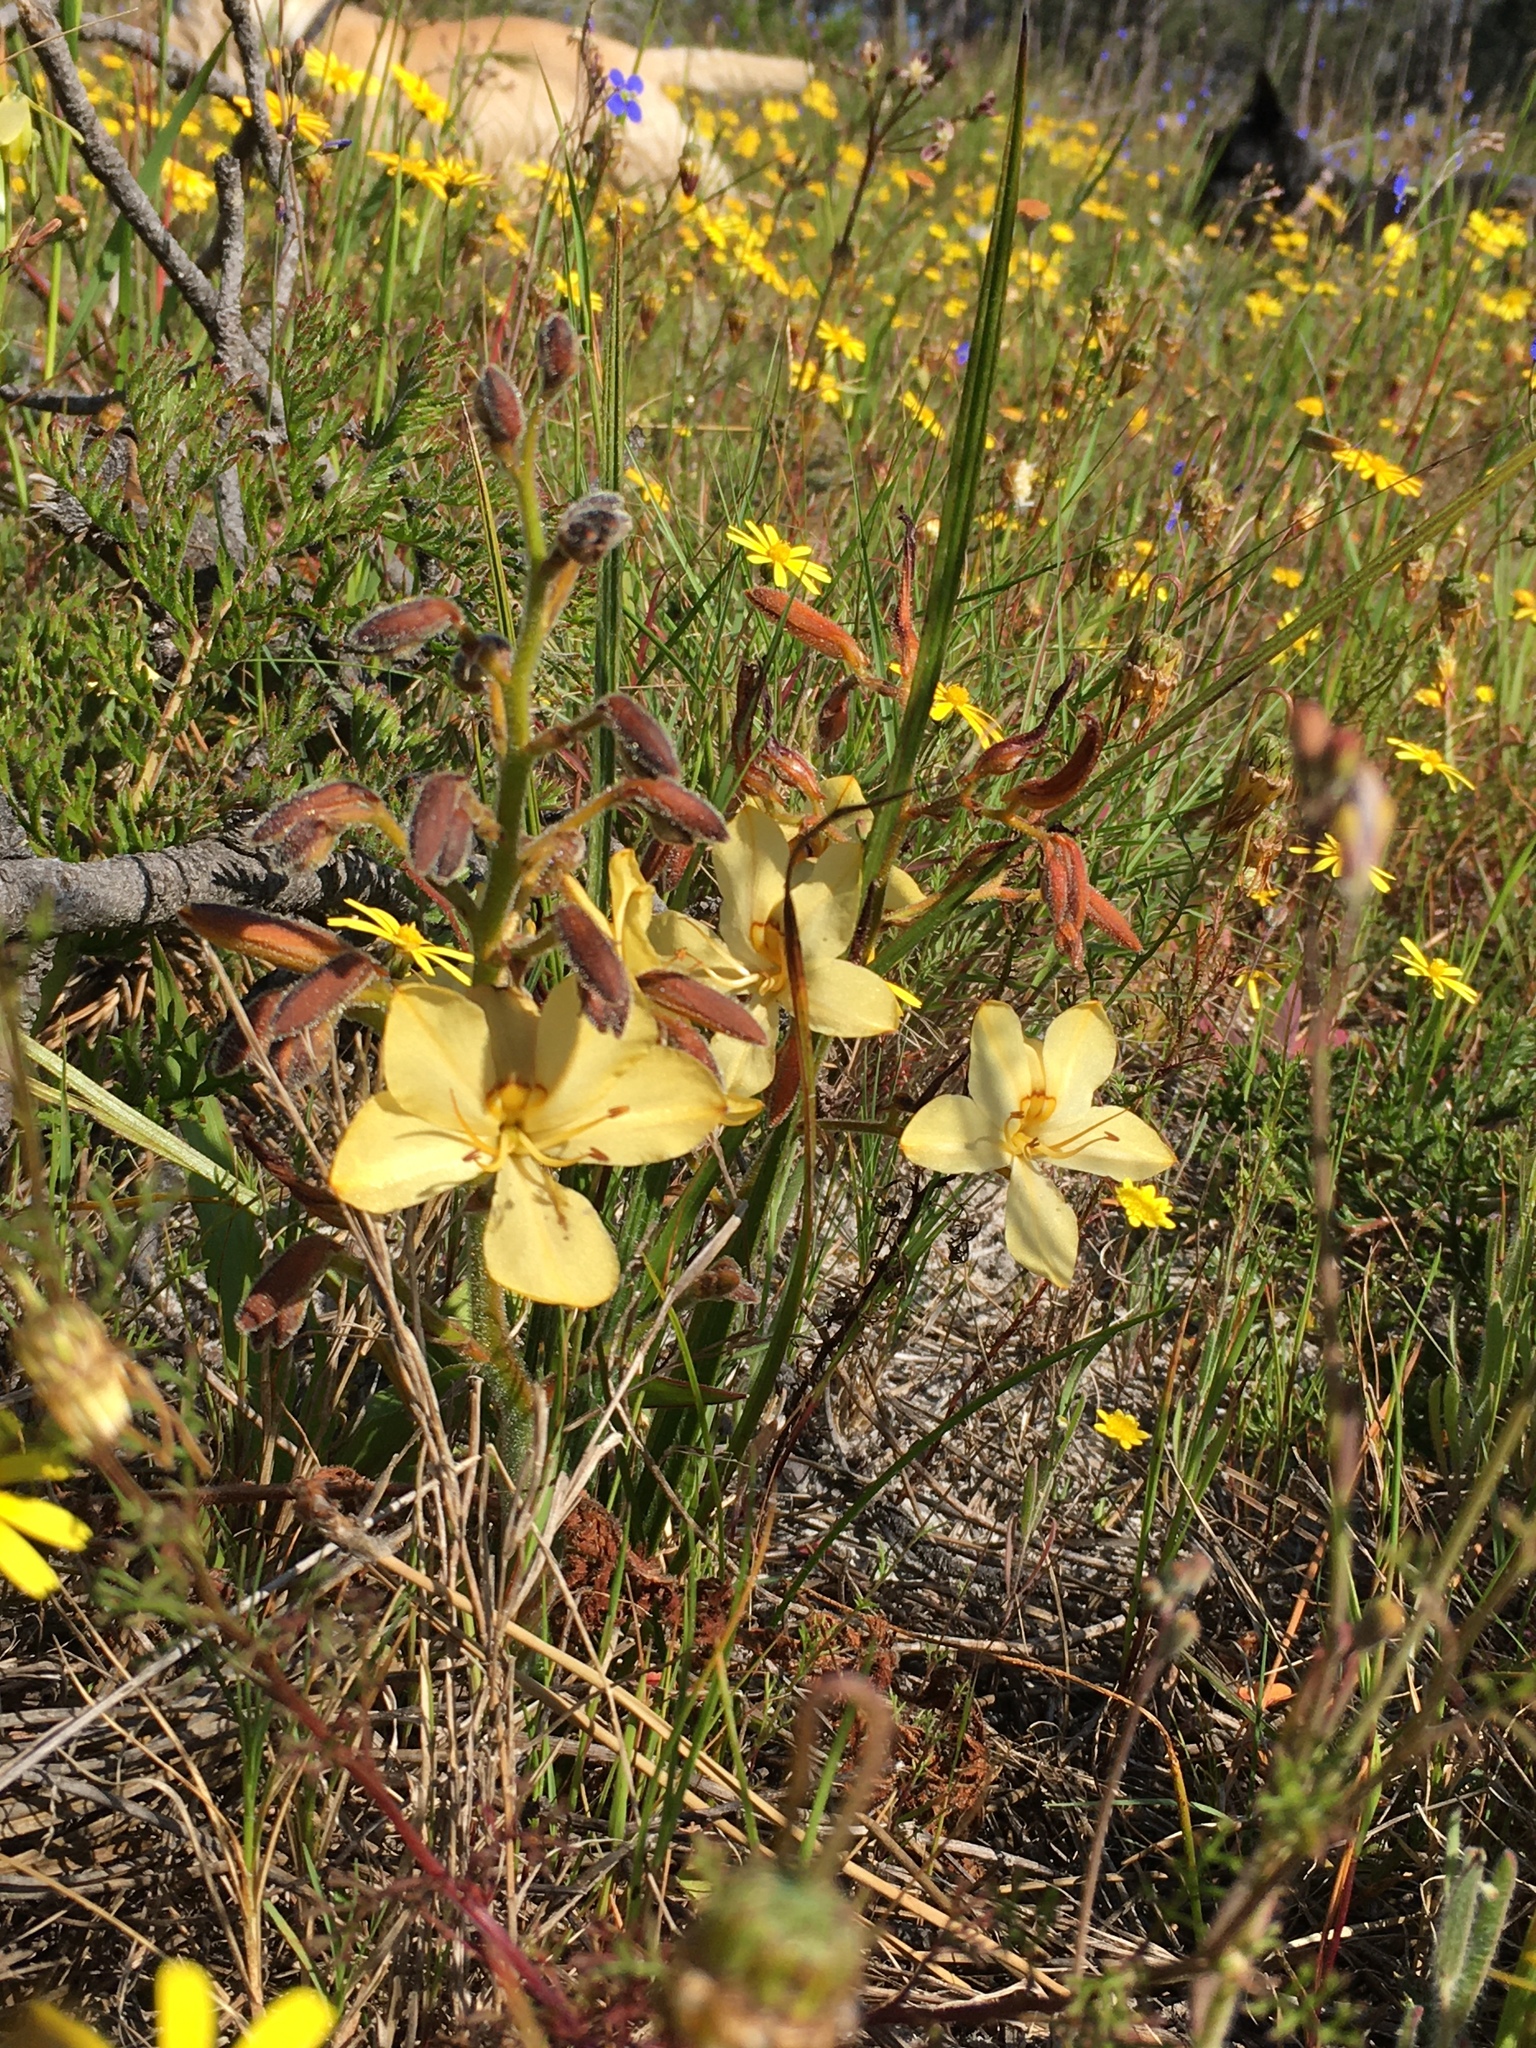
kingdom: Plantae
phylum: Tracheophyta
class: Liliopsida
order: Commelinales
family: Haemodoraceae
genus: Wachendorfia
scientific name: Wachendorfia paniculata
